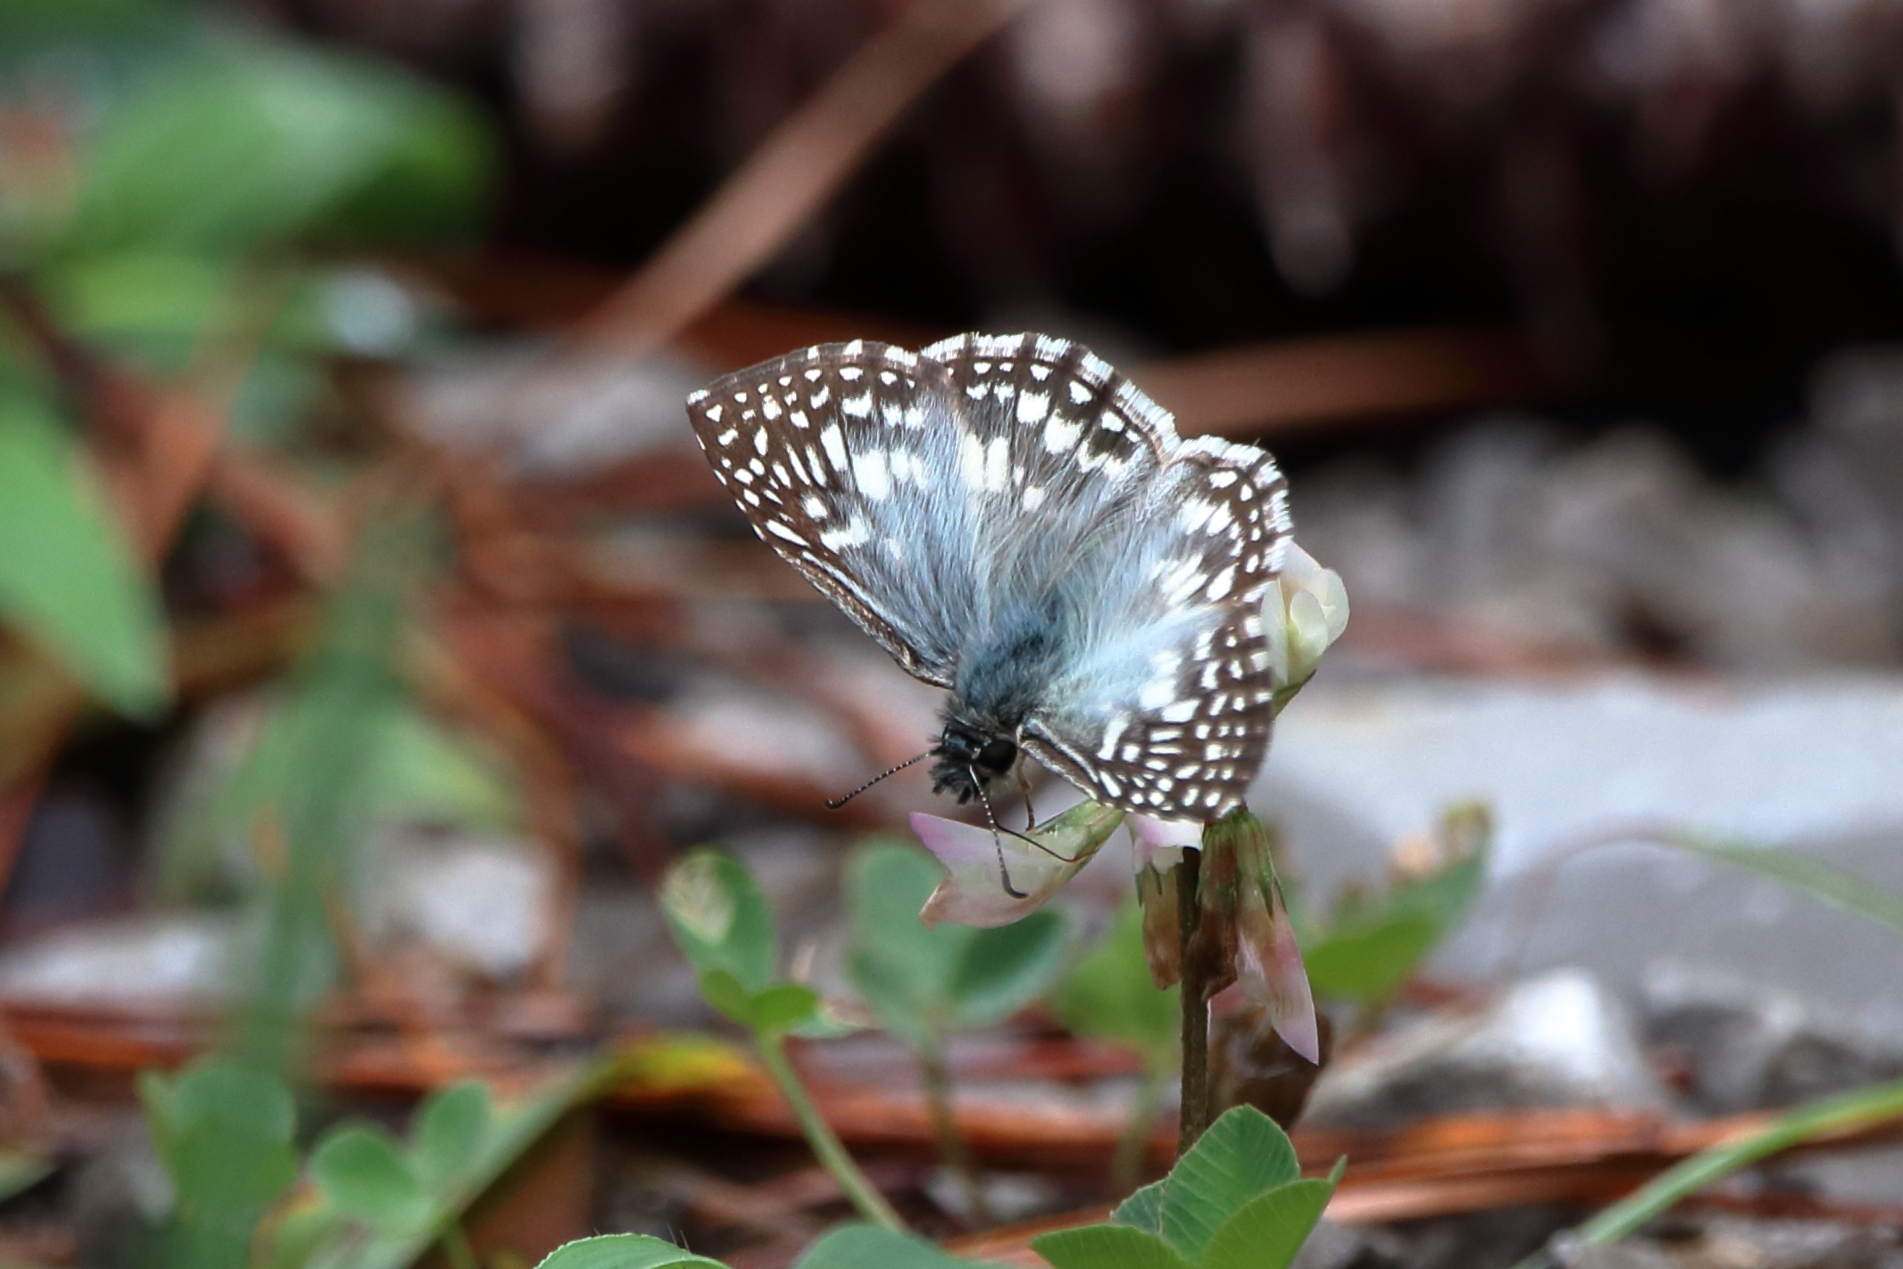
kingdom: Animalia
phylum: Arthropoda
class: Insecta
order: Lepidoptera
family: Hesperiidae
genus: Pyrgus
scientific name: Pyrgus oileus
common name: Tropical checkered-skipper
